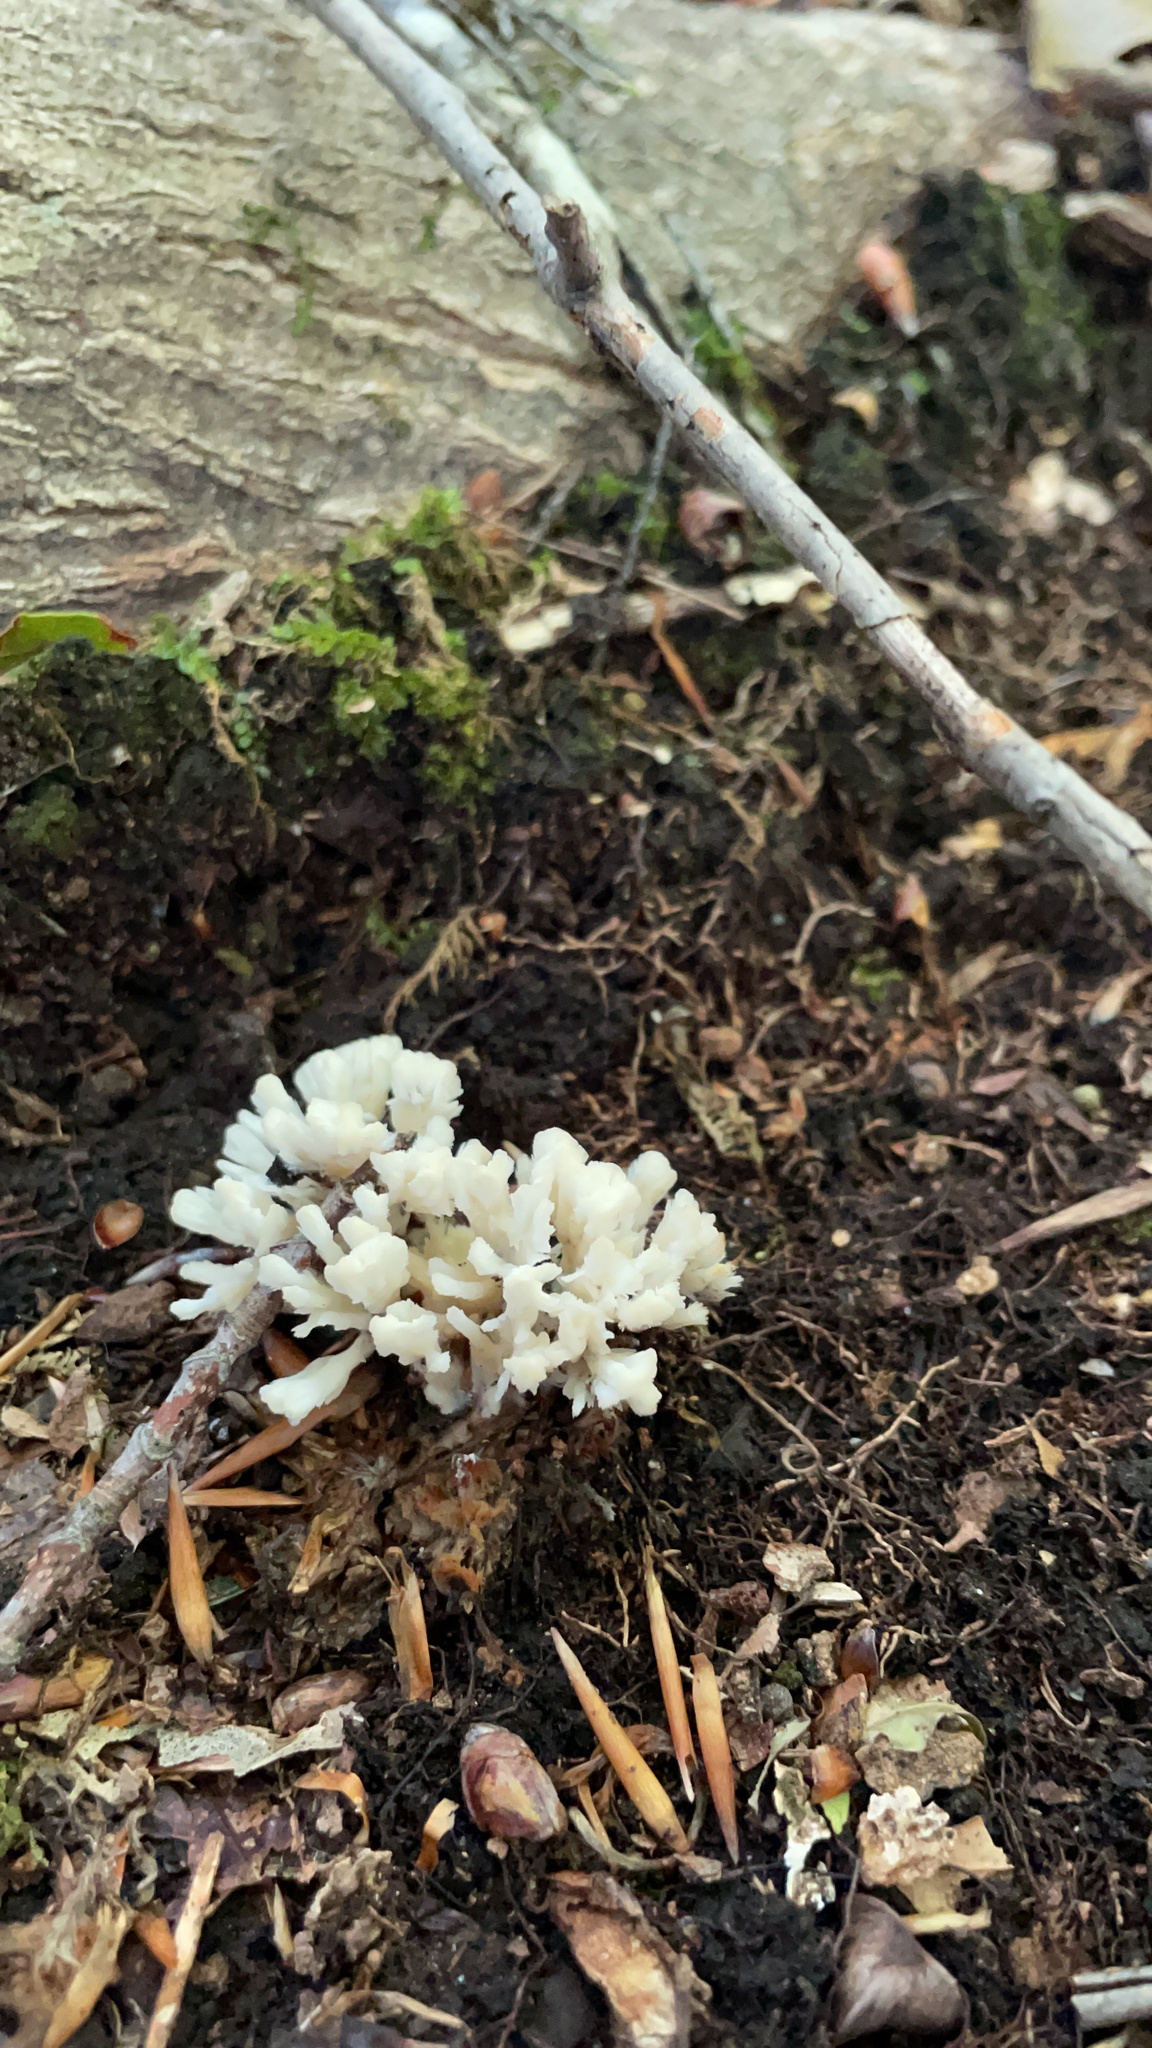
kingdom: Fungi
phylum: Basidiomycota
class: Agaricomycetes
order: Sebacinales
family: Sebacinaceae
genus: Sebacina
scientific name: Sebacina schweinitzii
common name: Jellied false coral fungus
